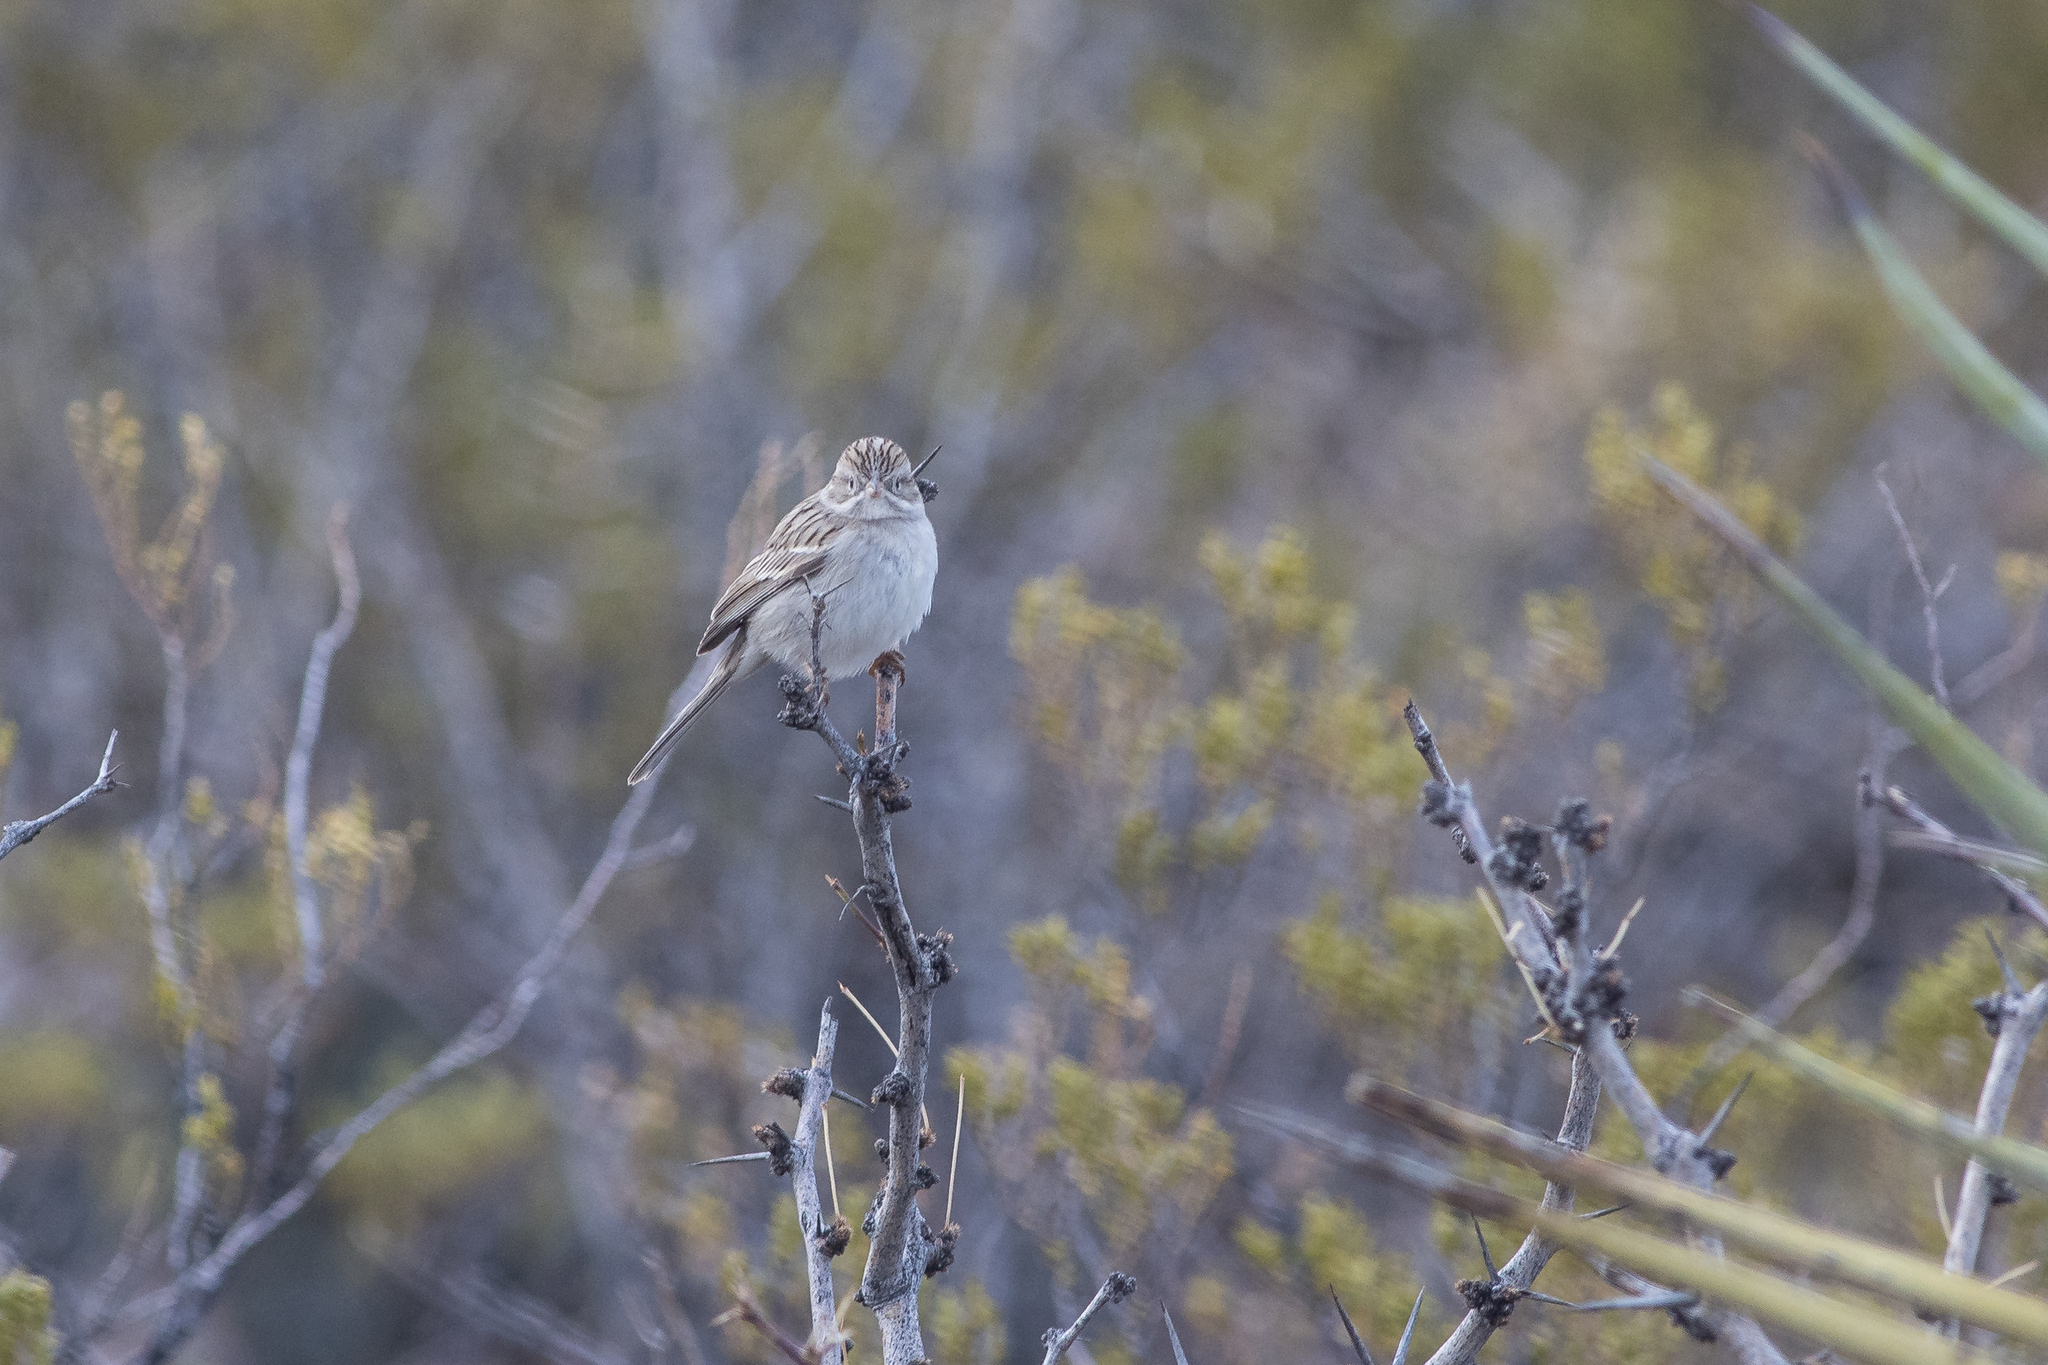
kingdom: Animalia
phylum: Chordata
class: Aves
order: Passeriformes
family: Passerellidae
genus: Spizella
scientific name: Spizella breweri
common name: Brewer's sparrow
